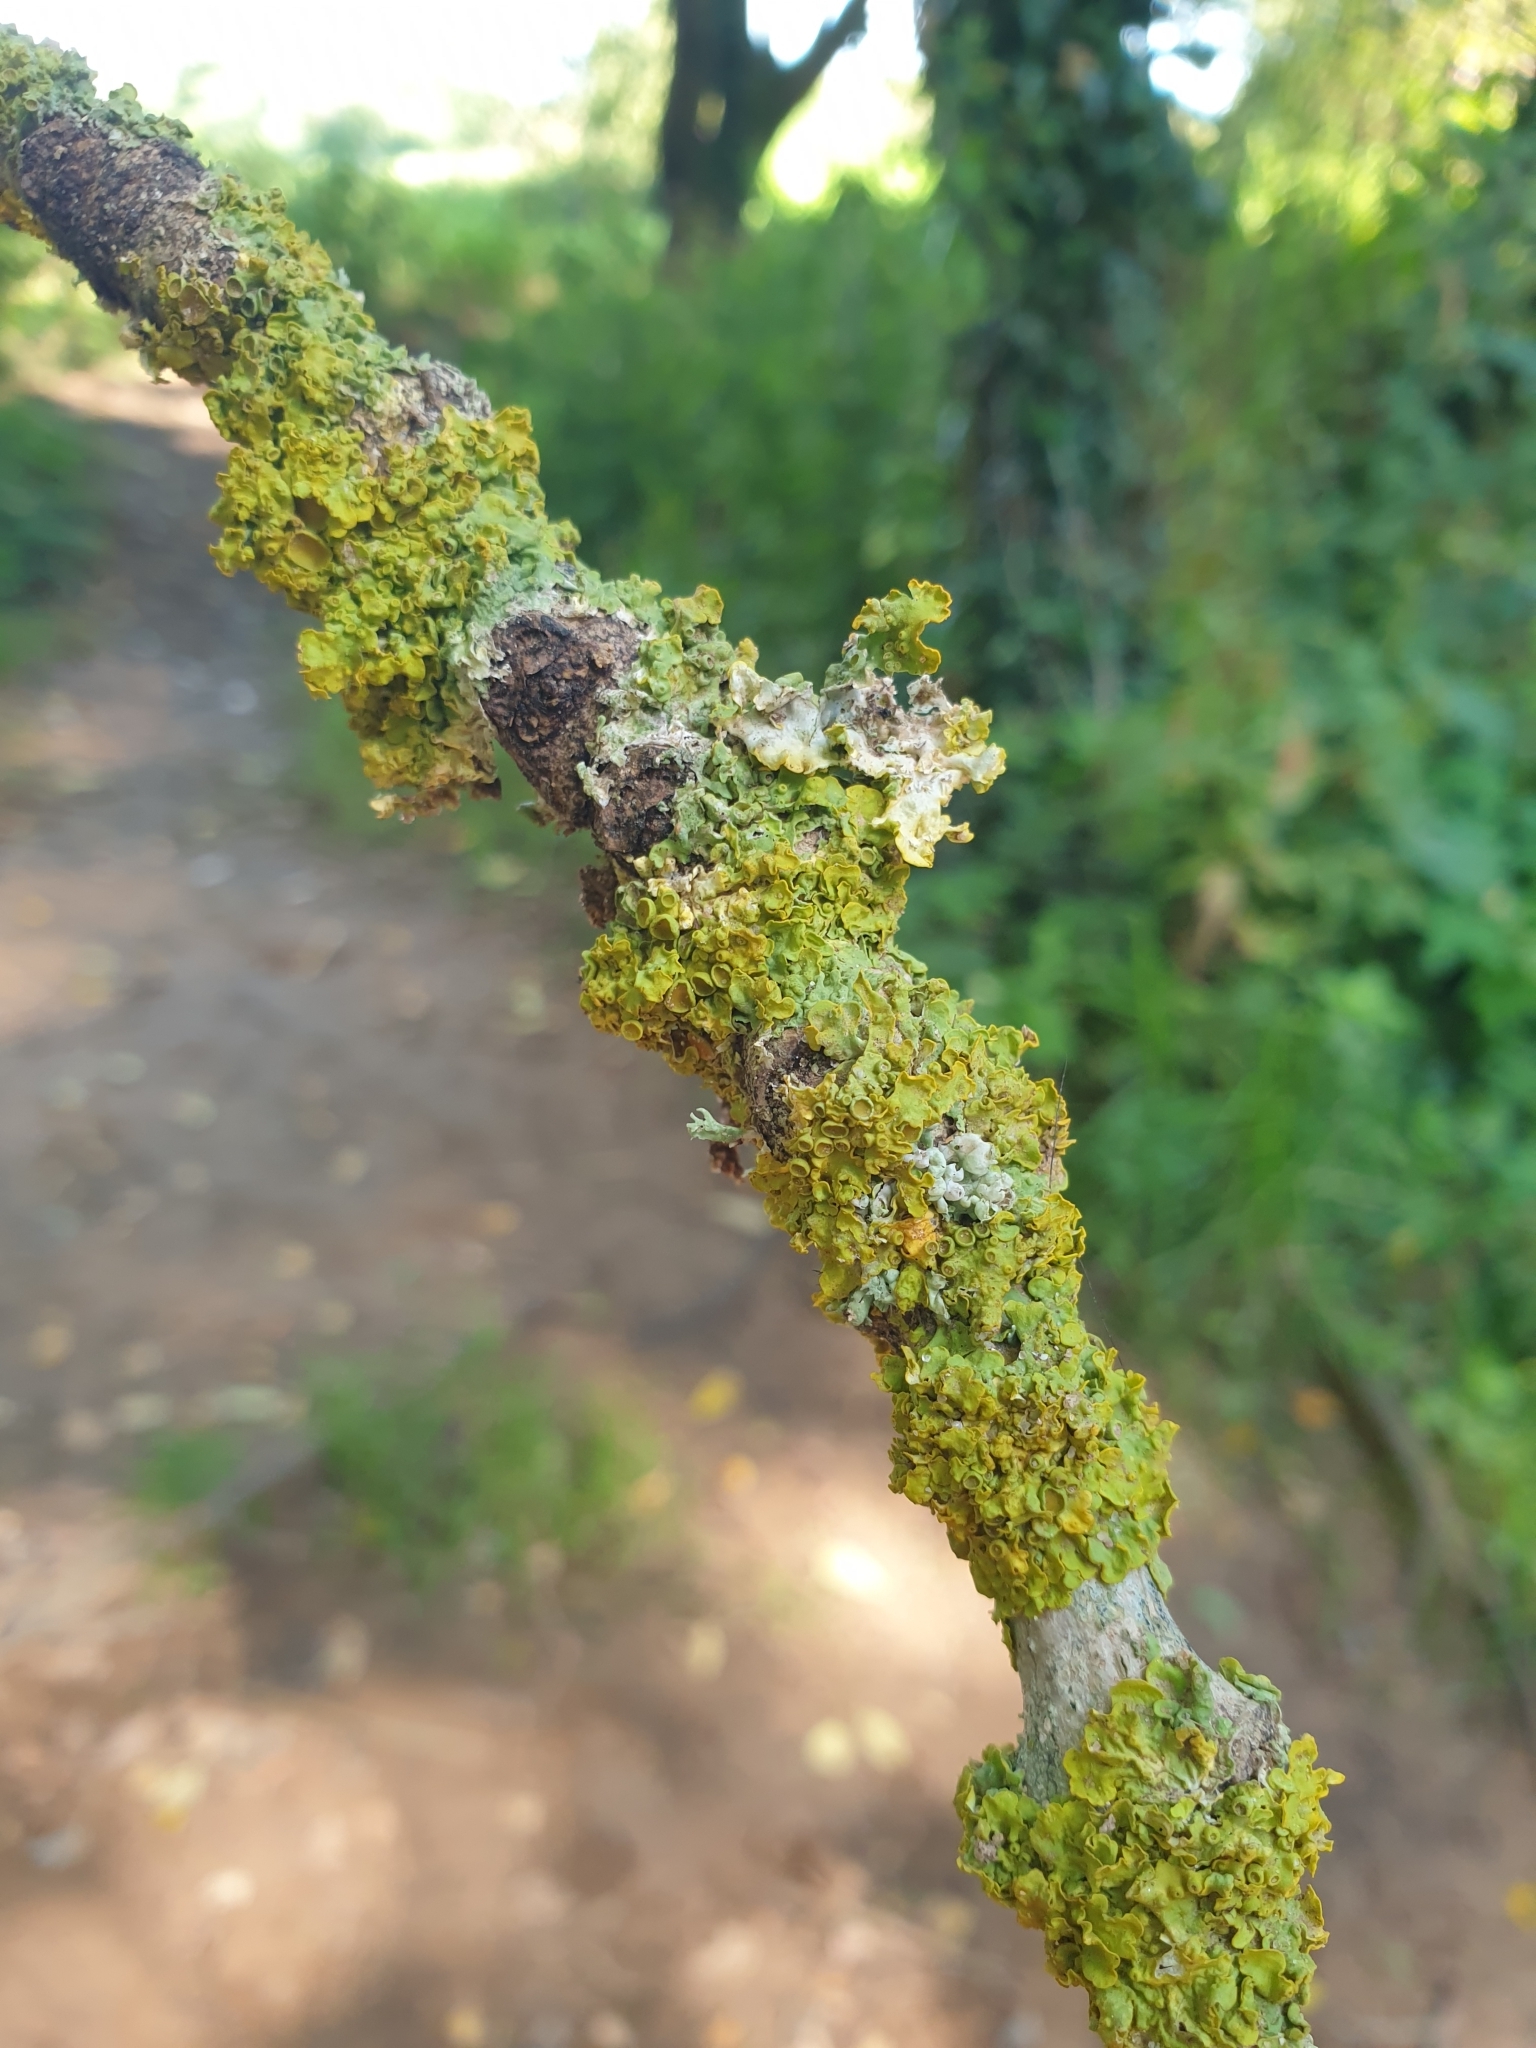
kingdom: Fungi
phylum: Ascomycota
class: Lecanoromycetes
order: Teloschistales
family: Teloschistaceae
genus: Xanthoria
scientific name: Xanthoria parietina
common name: Common orange lichen
